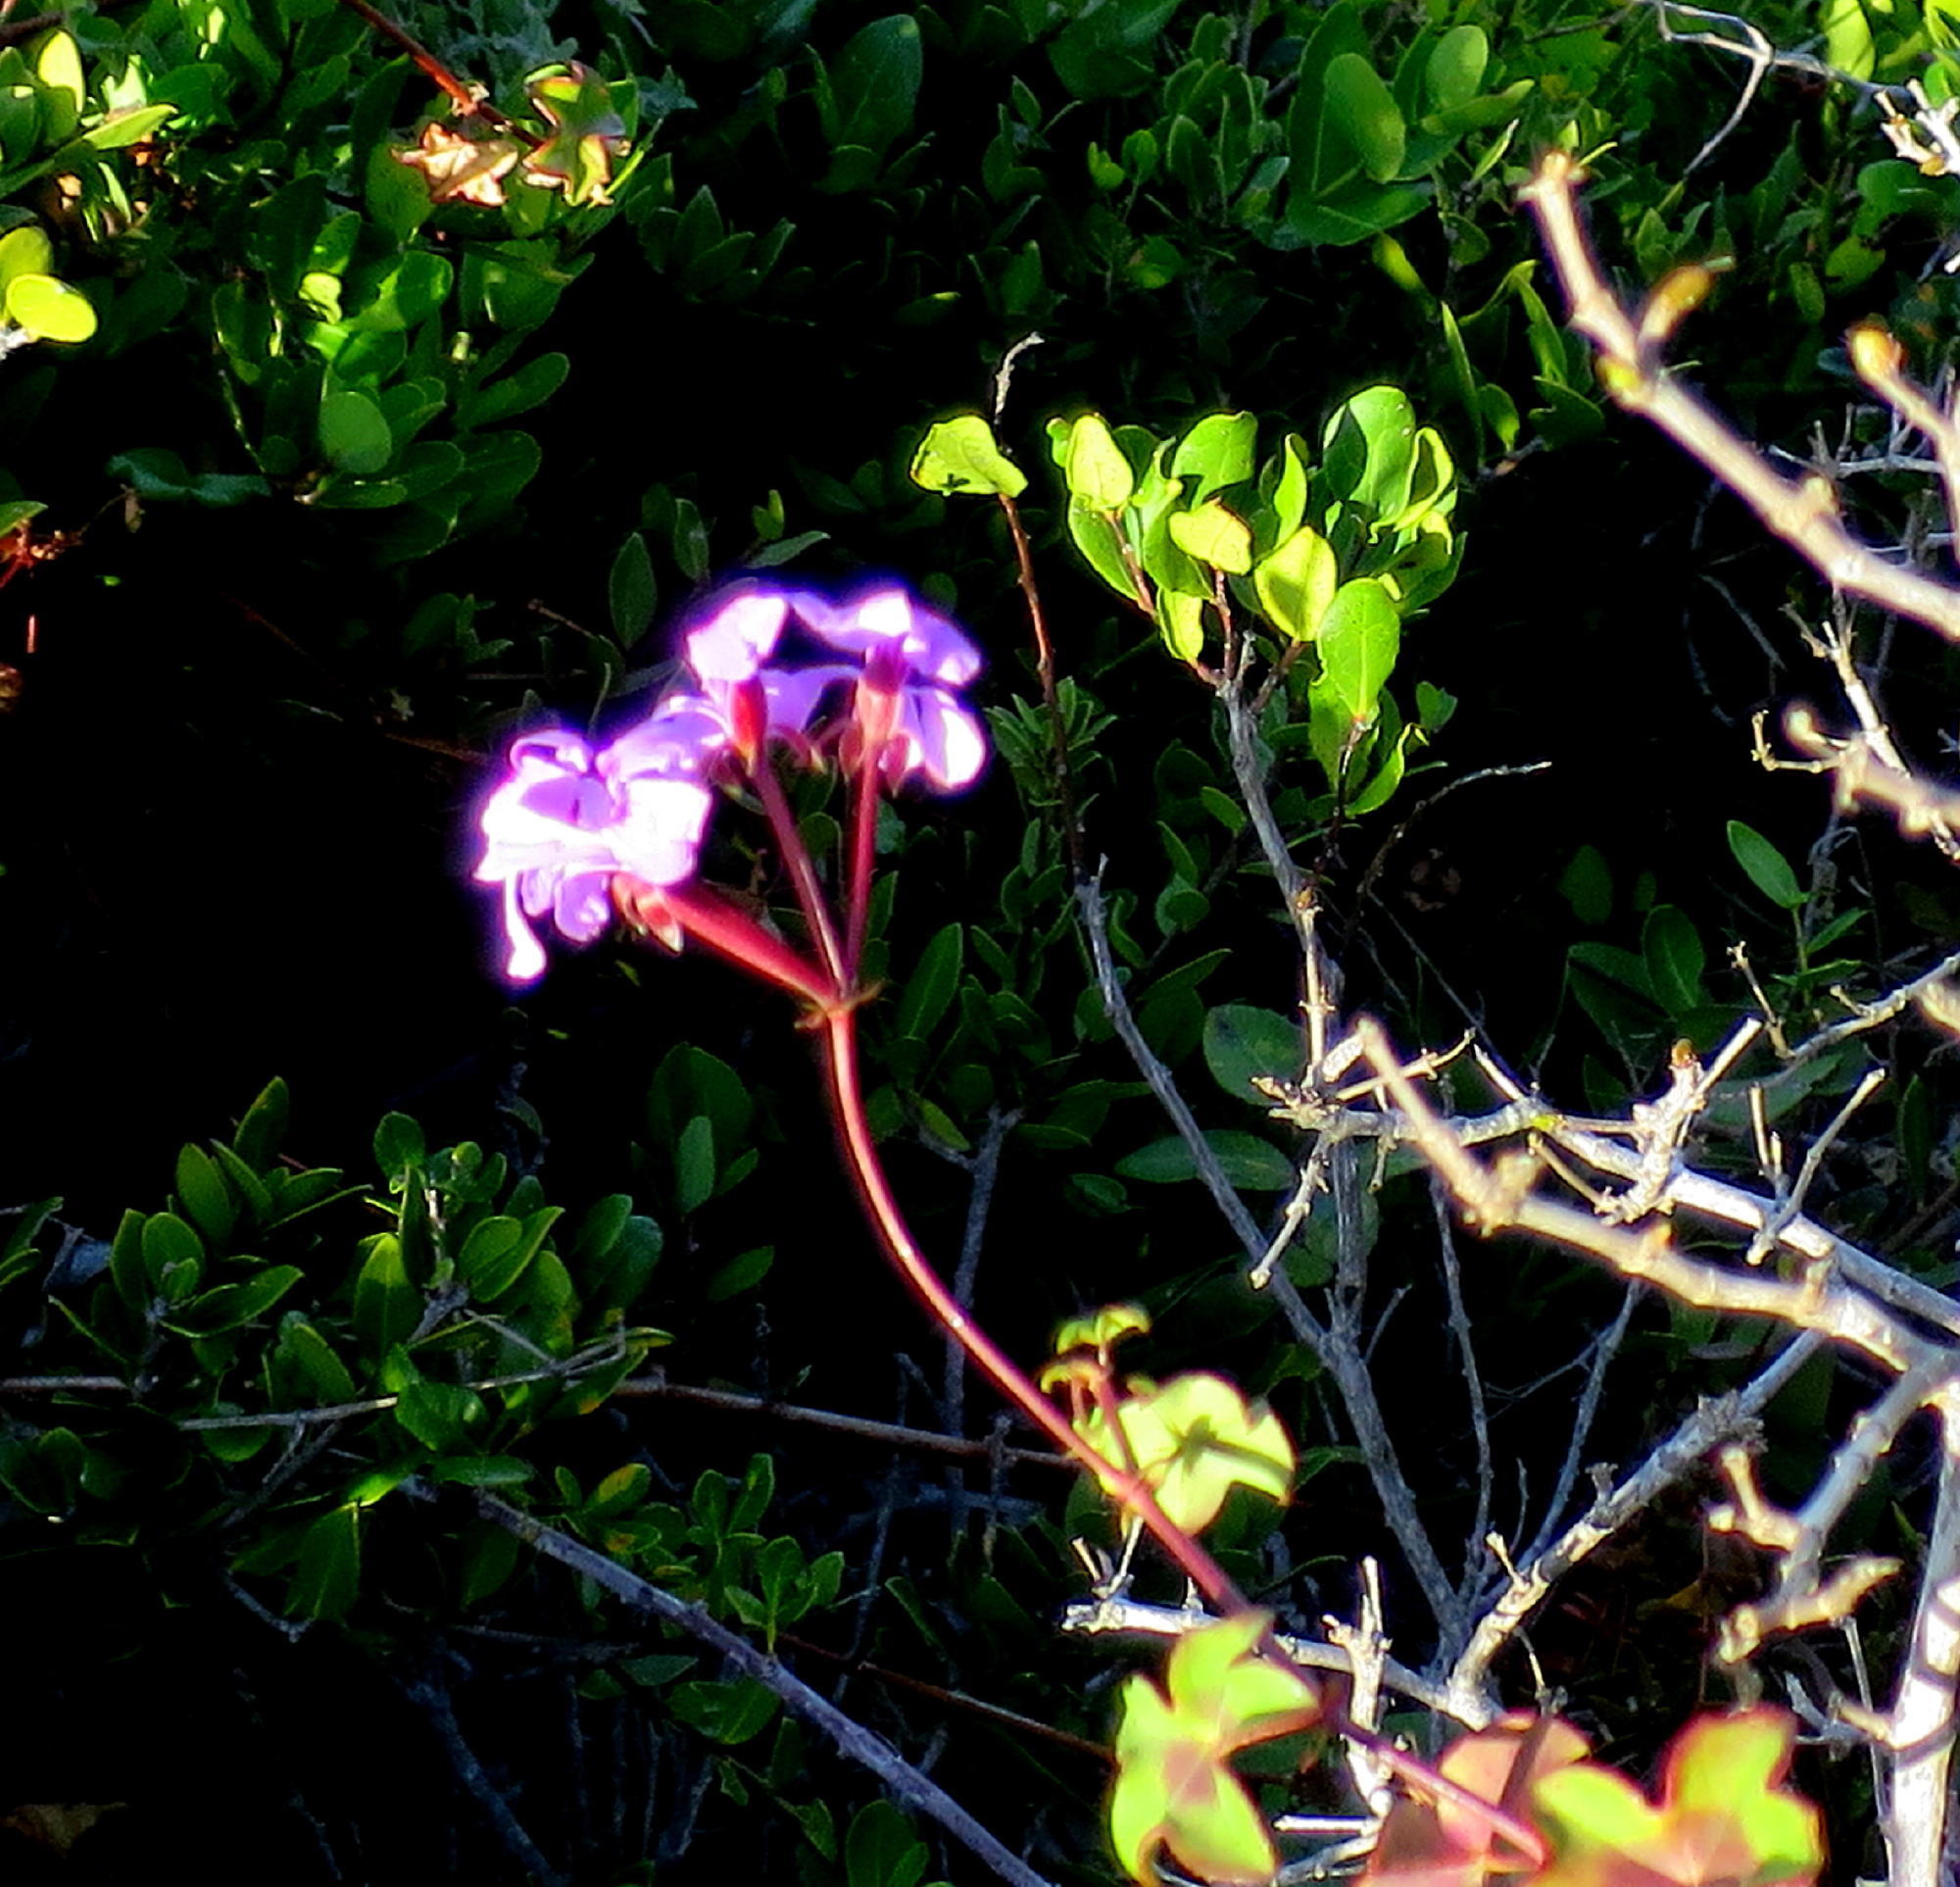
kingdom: Plantae
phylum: Tracheophyta
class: Magnoliopsida
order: Geraniales
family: Geraniaceae
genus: Pelargonium
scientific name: Pelargonium peltatum
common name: Ivyleaf geranium
